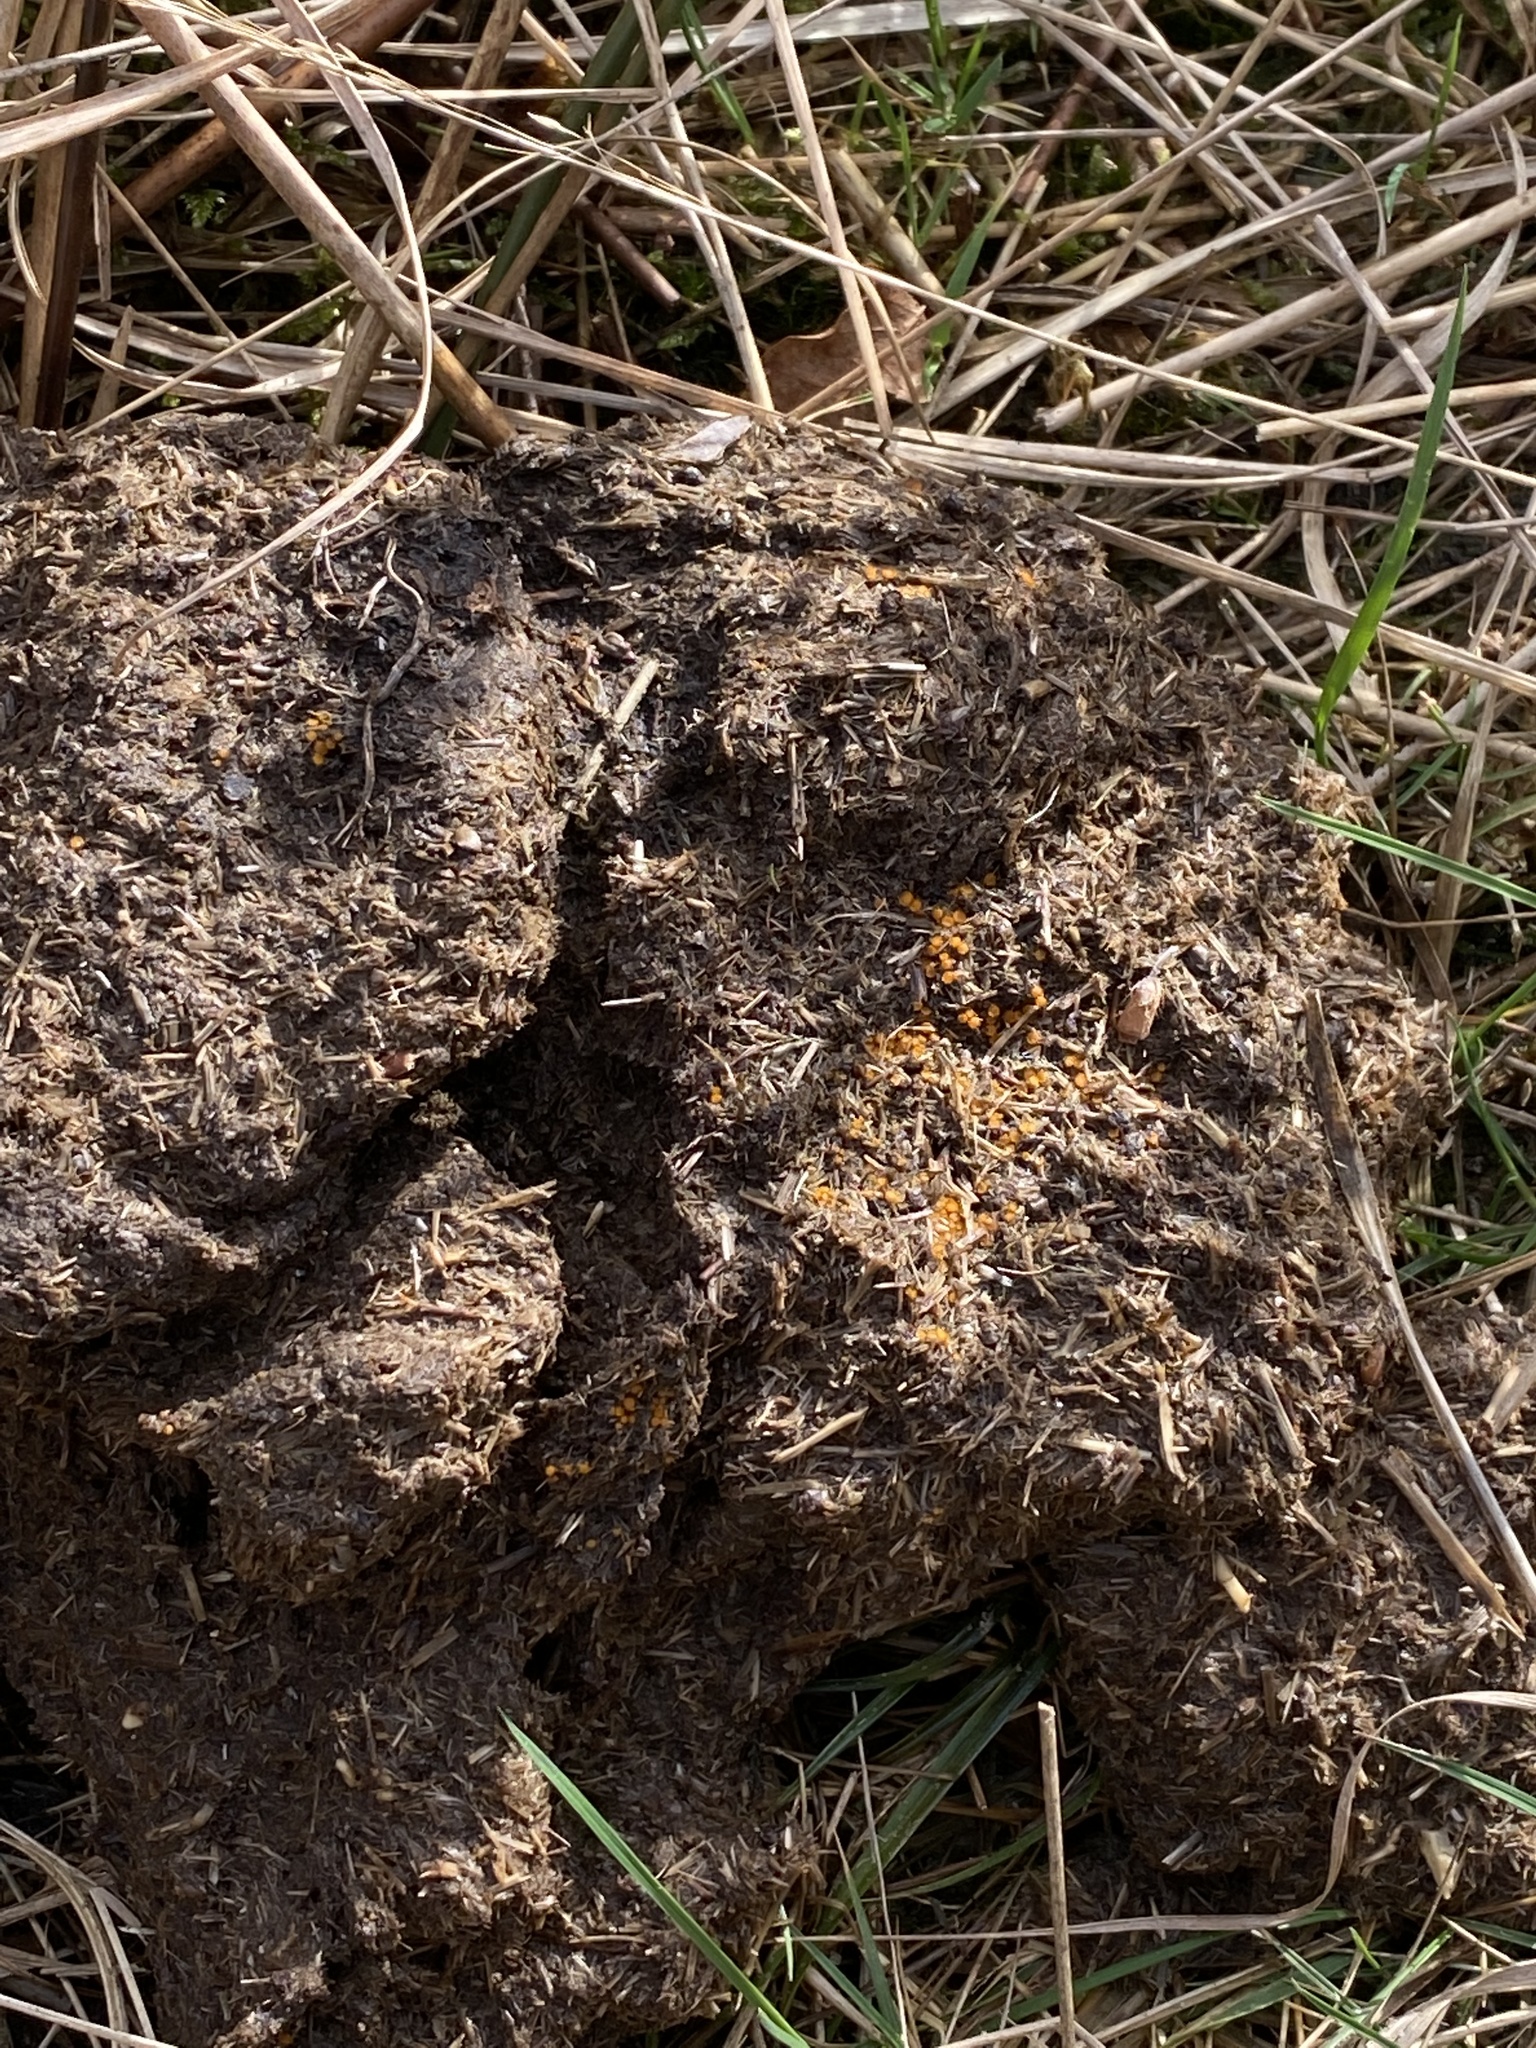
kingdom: Fungi
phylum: Ascomycota
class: Pezizomycetes
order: Pezizales
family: Pyronemataceae
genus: Cheilymenia
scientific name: Cheilymenia coprinaria
